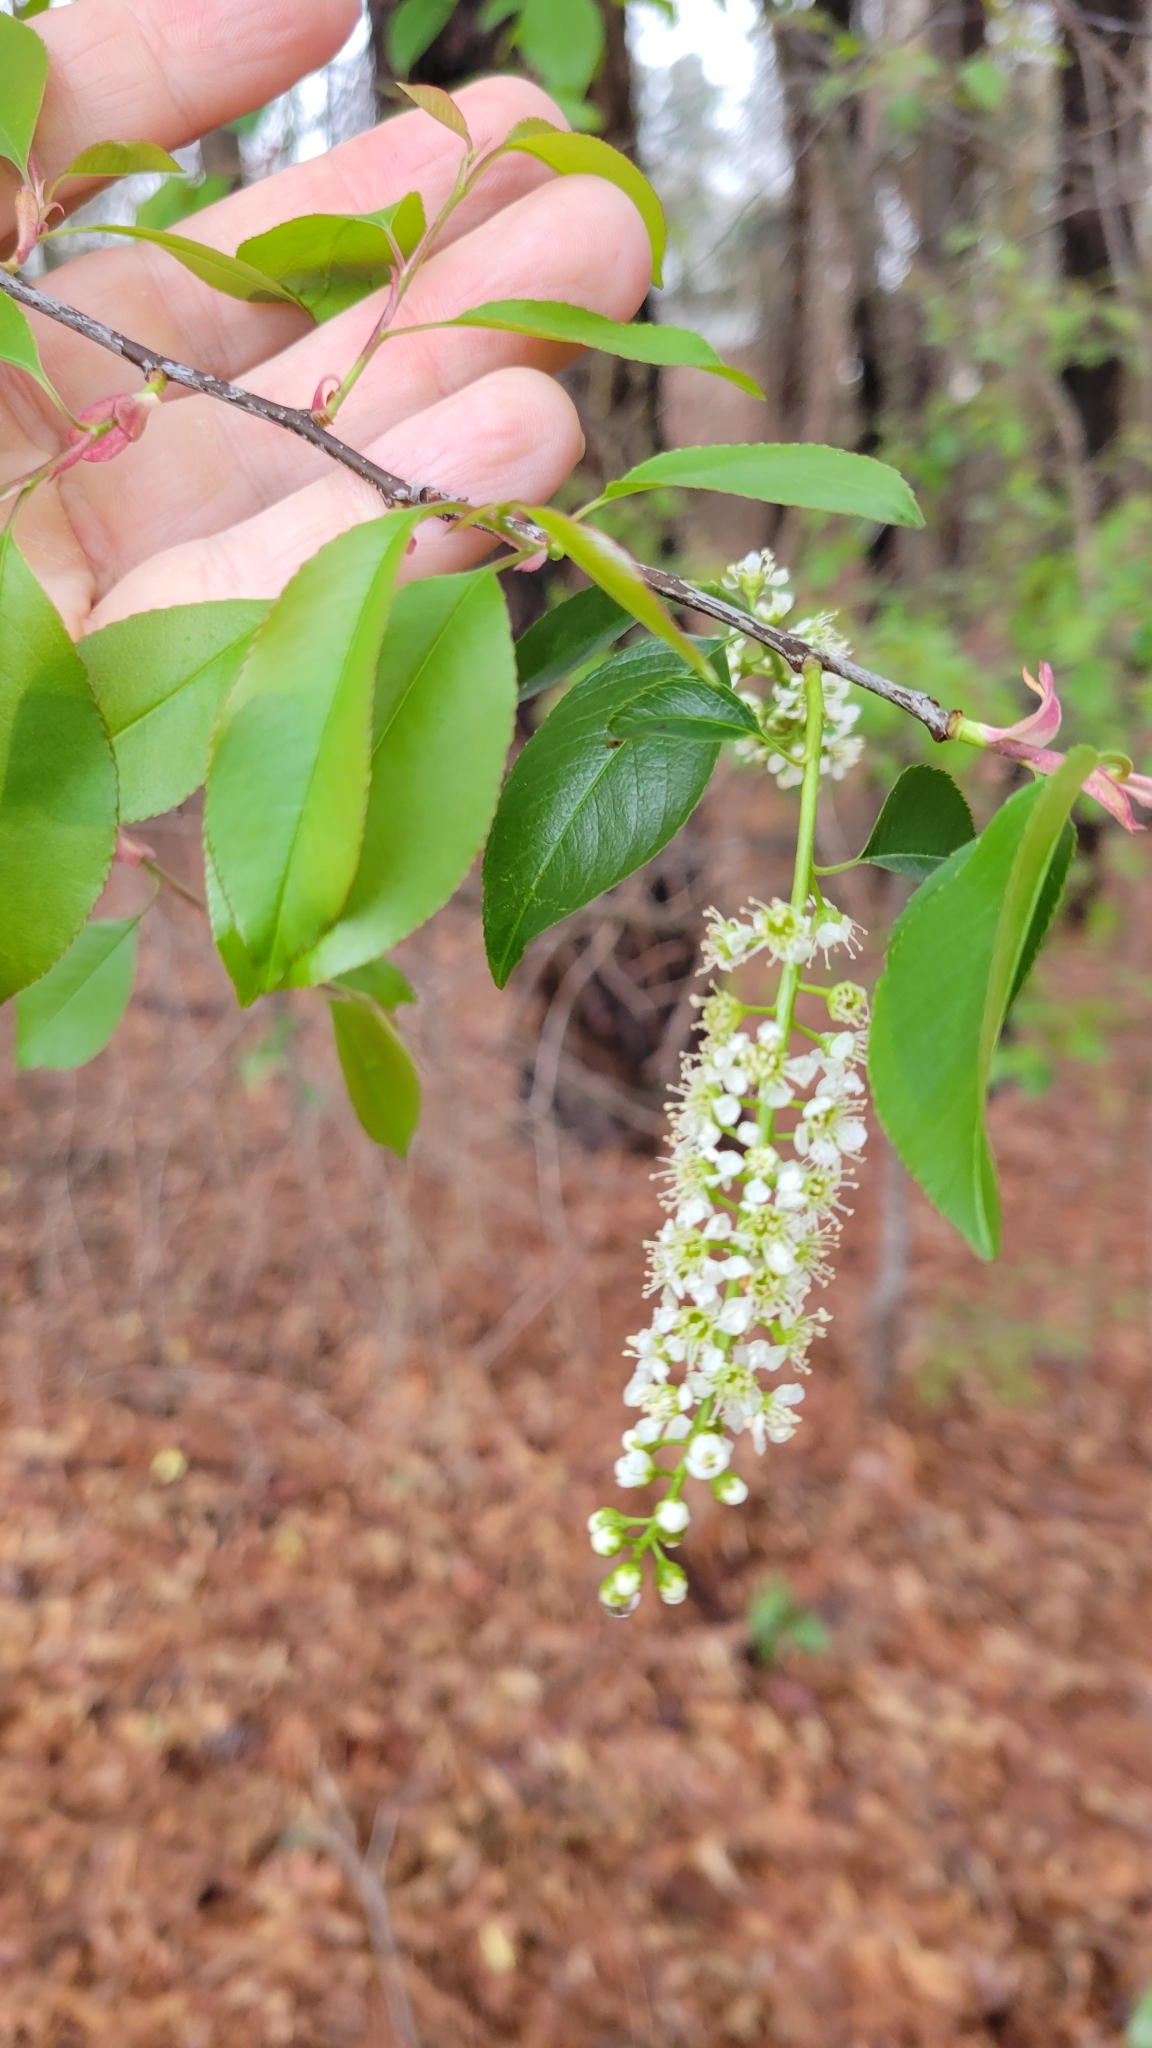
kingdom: Plantae
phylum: Tracheophyta
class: Magnoliopsida
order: Rosales
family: Rosaceae
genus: Prunus
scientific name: Prunus serotina
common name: Black cherry
